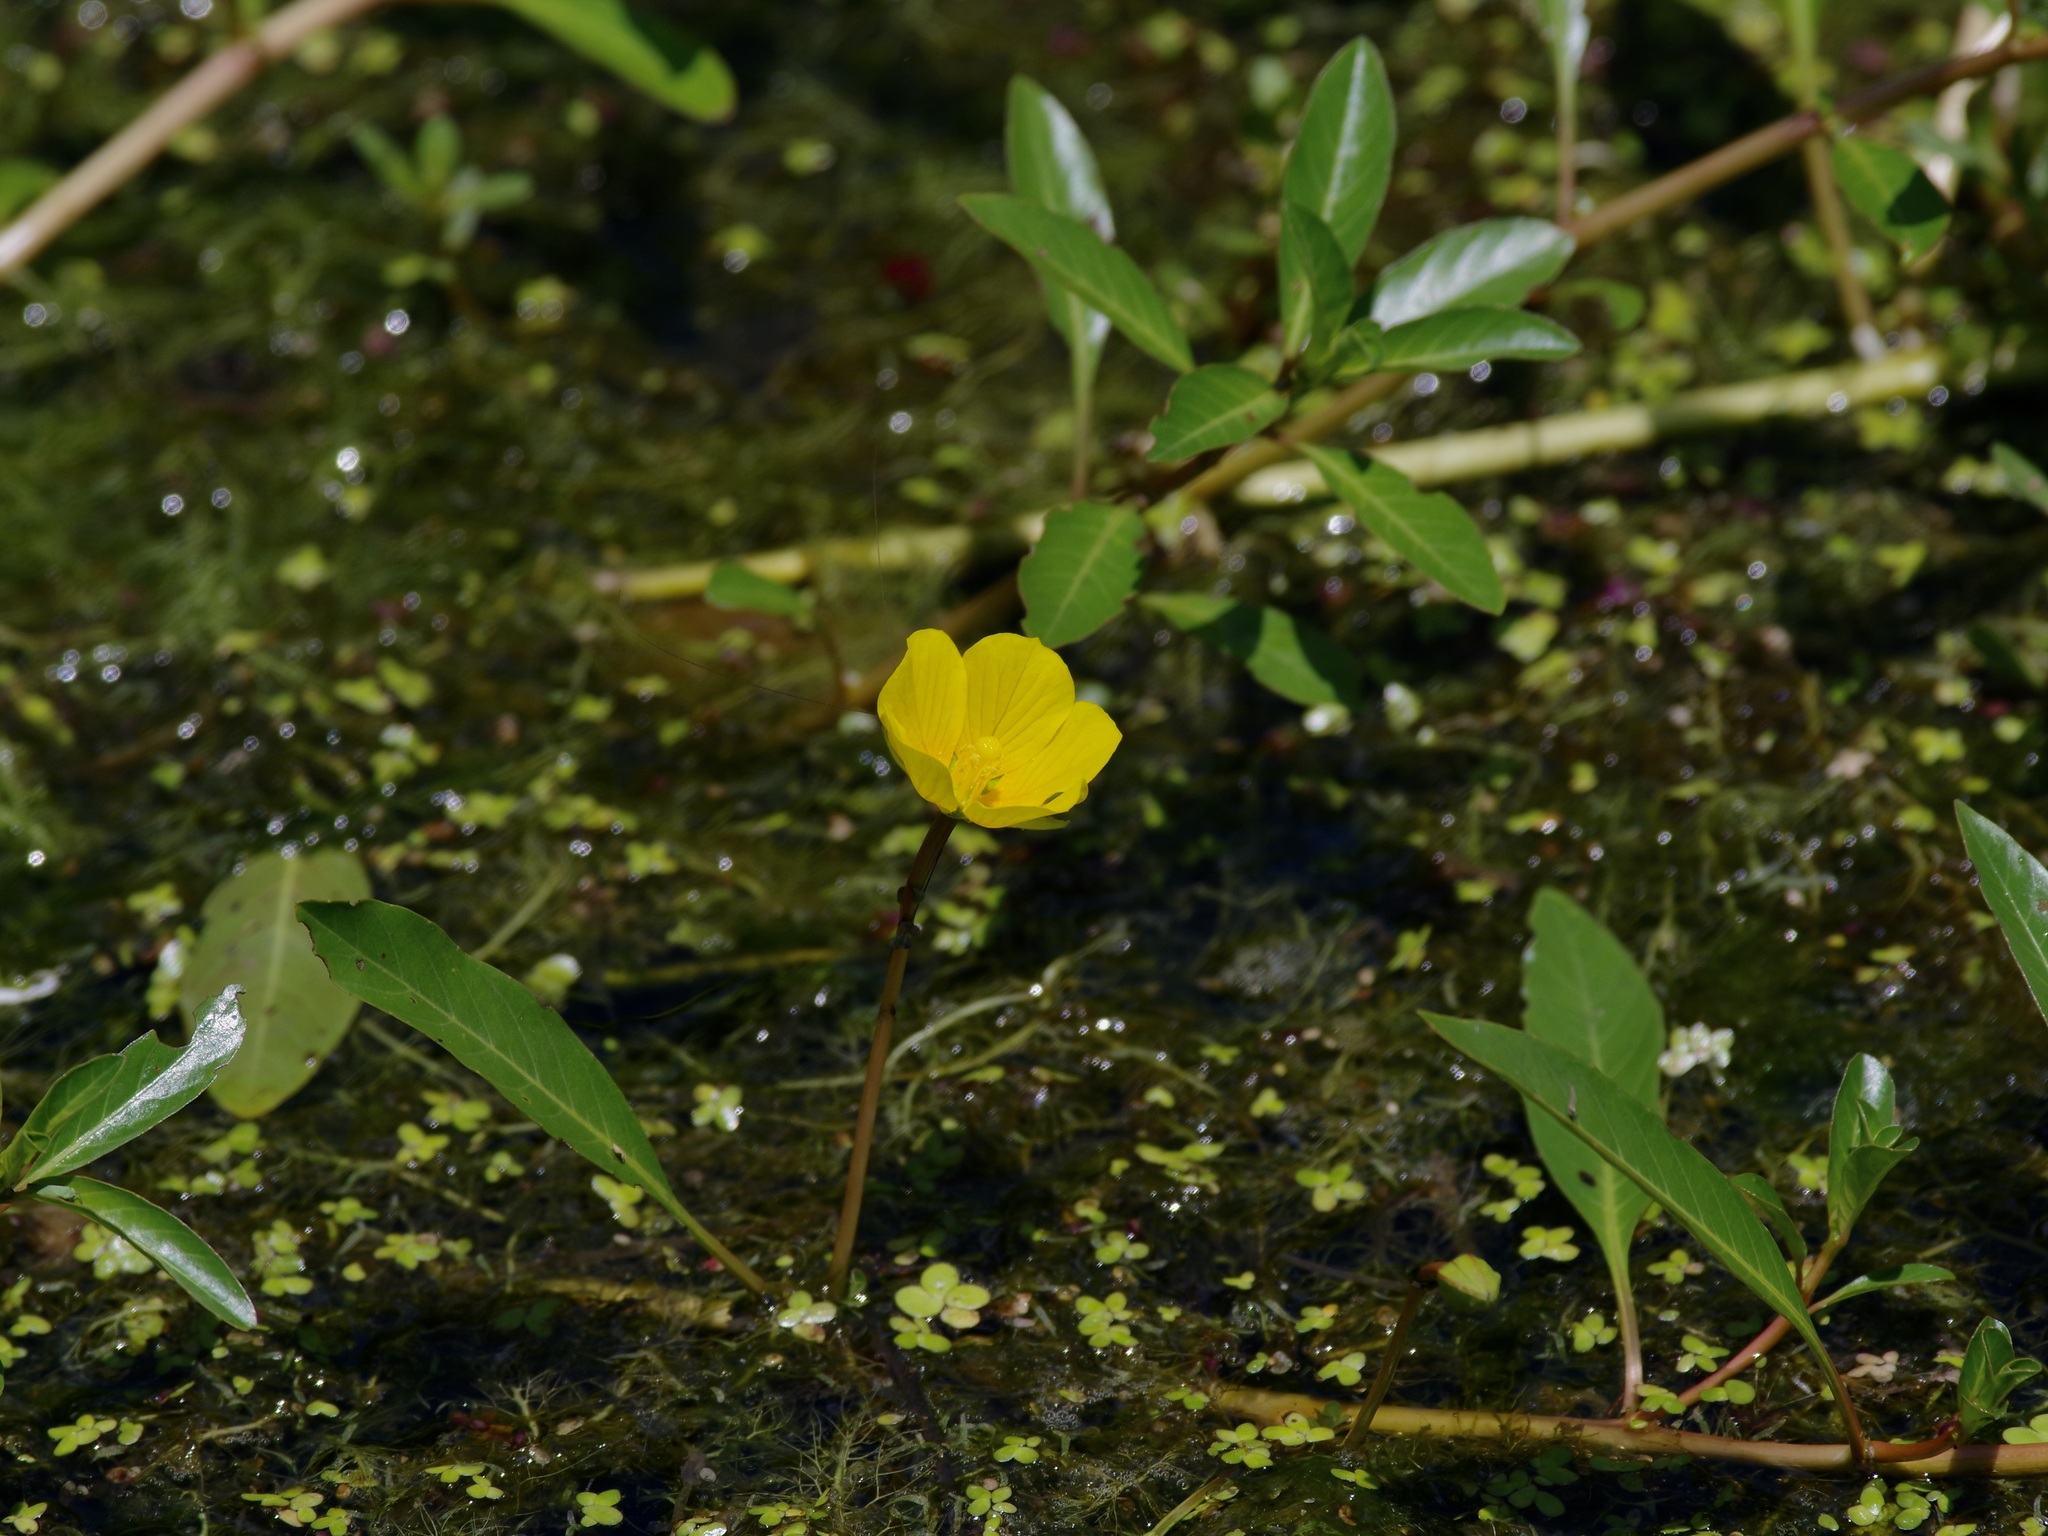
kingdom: Plantae
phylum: Tracheophyta
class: Magnoliopsida
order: Myrtales
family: Onagraceae
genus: Ludwigia
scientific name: Ludwigia peploides
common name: Floating primrose-willow
